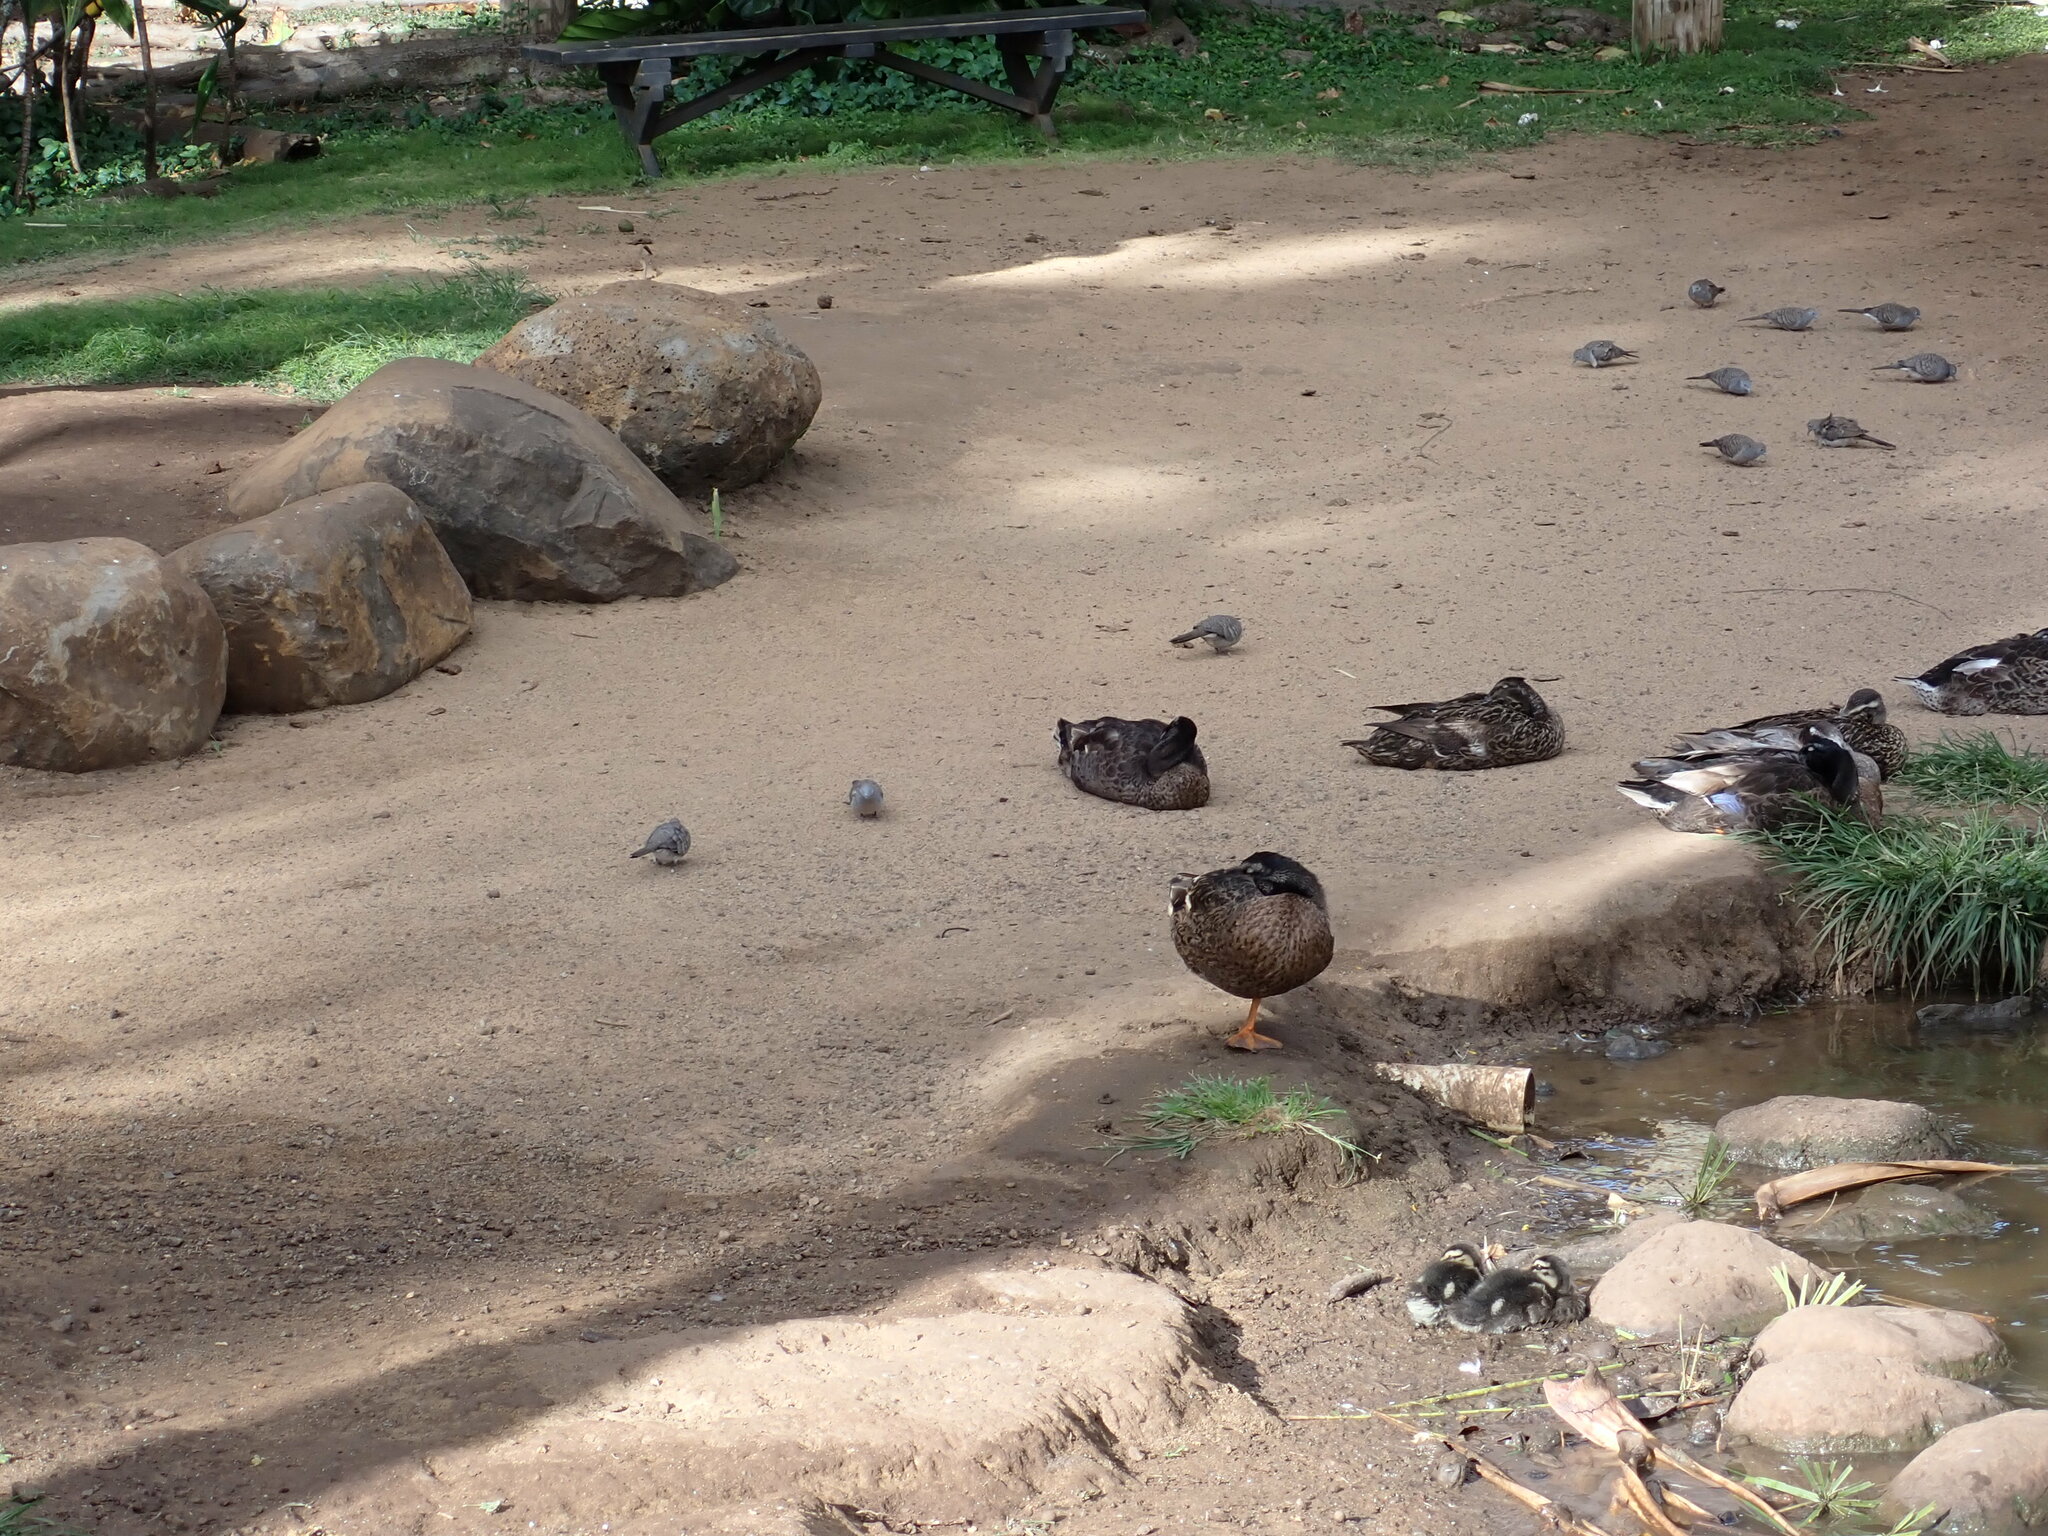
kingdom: Animalia
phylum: Chordata
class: Aves
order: Columbiformes
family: Columbidae
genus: Geopelia
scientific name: Geopelia striata
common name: Zebra dove
